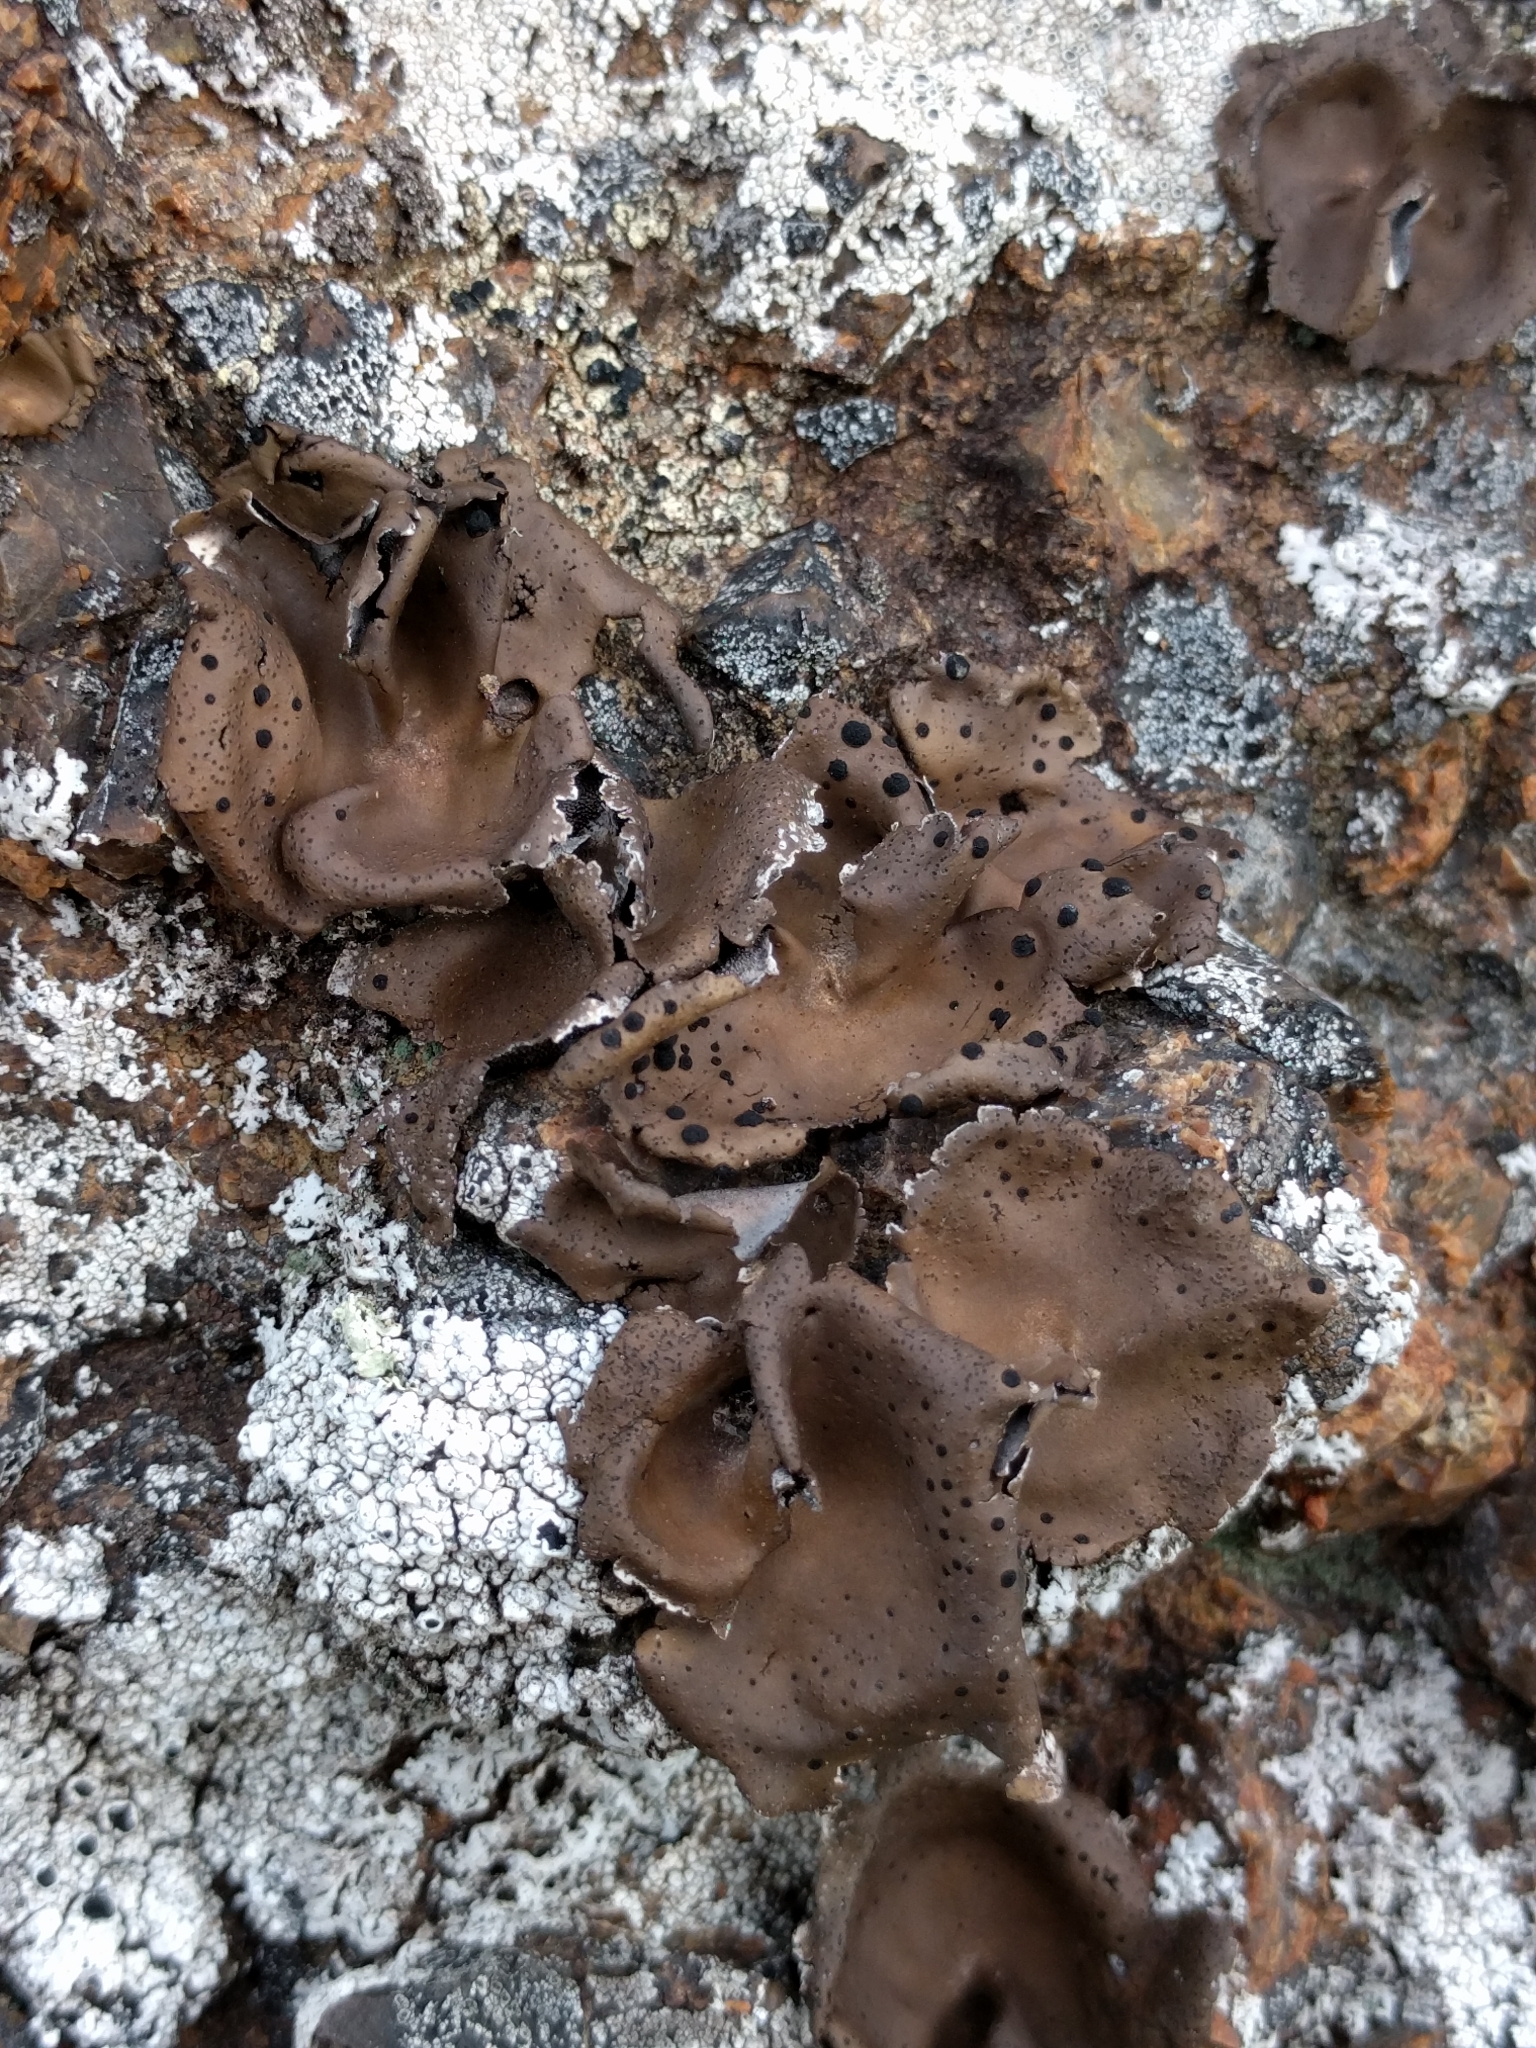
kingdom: Fungi
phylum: Ascomycota
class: Lecanoromycetes
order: Umbilicariales
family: Umbilicariaceae
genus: Umbilicaria
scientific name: Umbilicaria phaea
